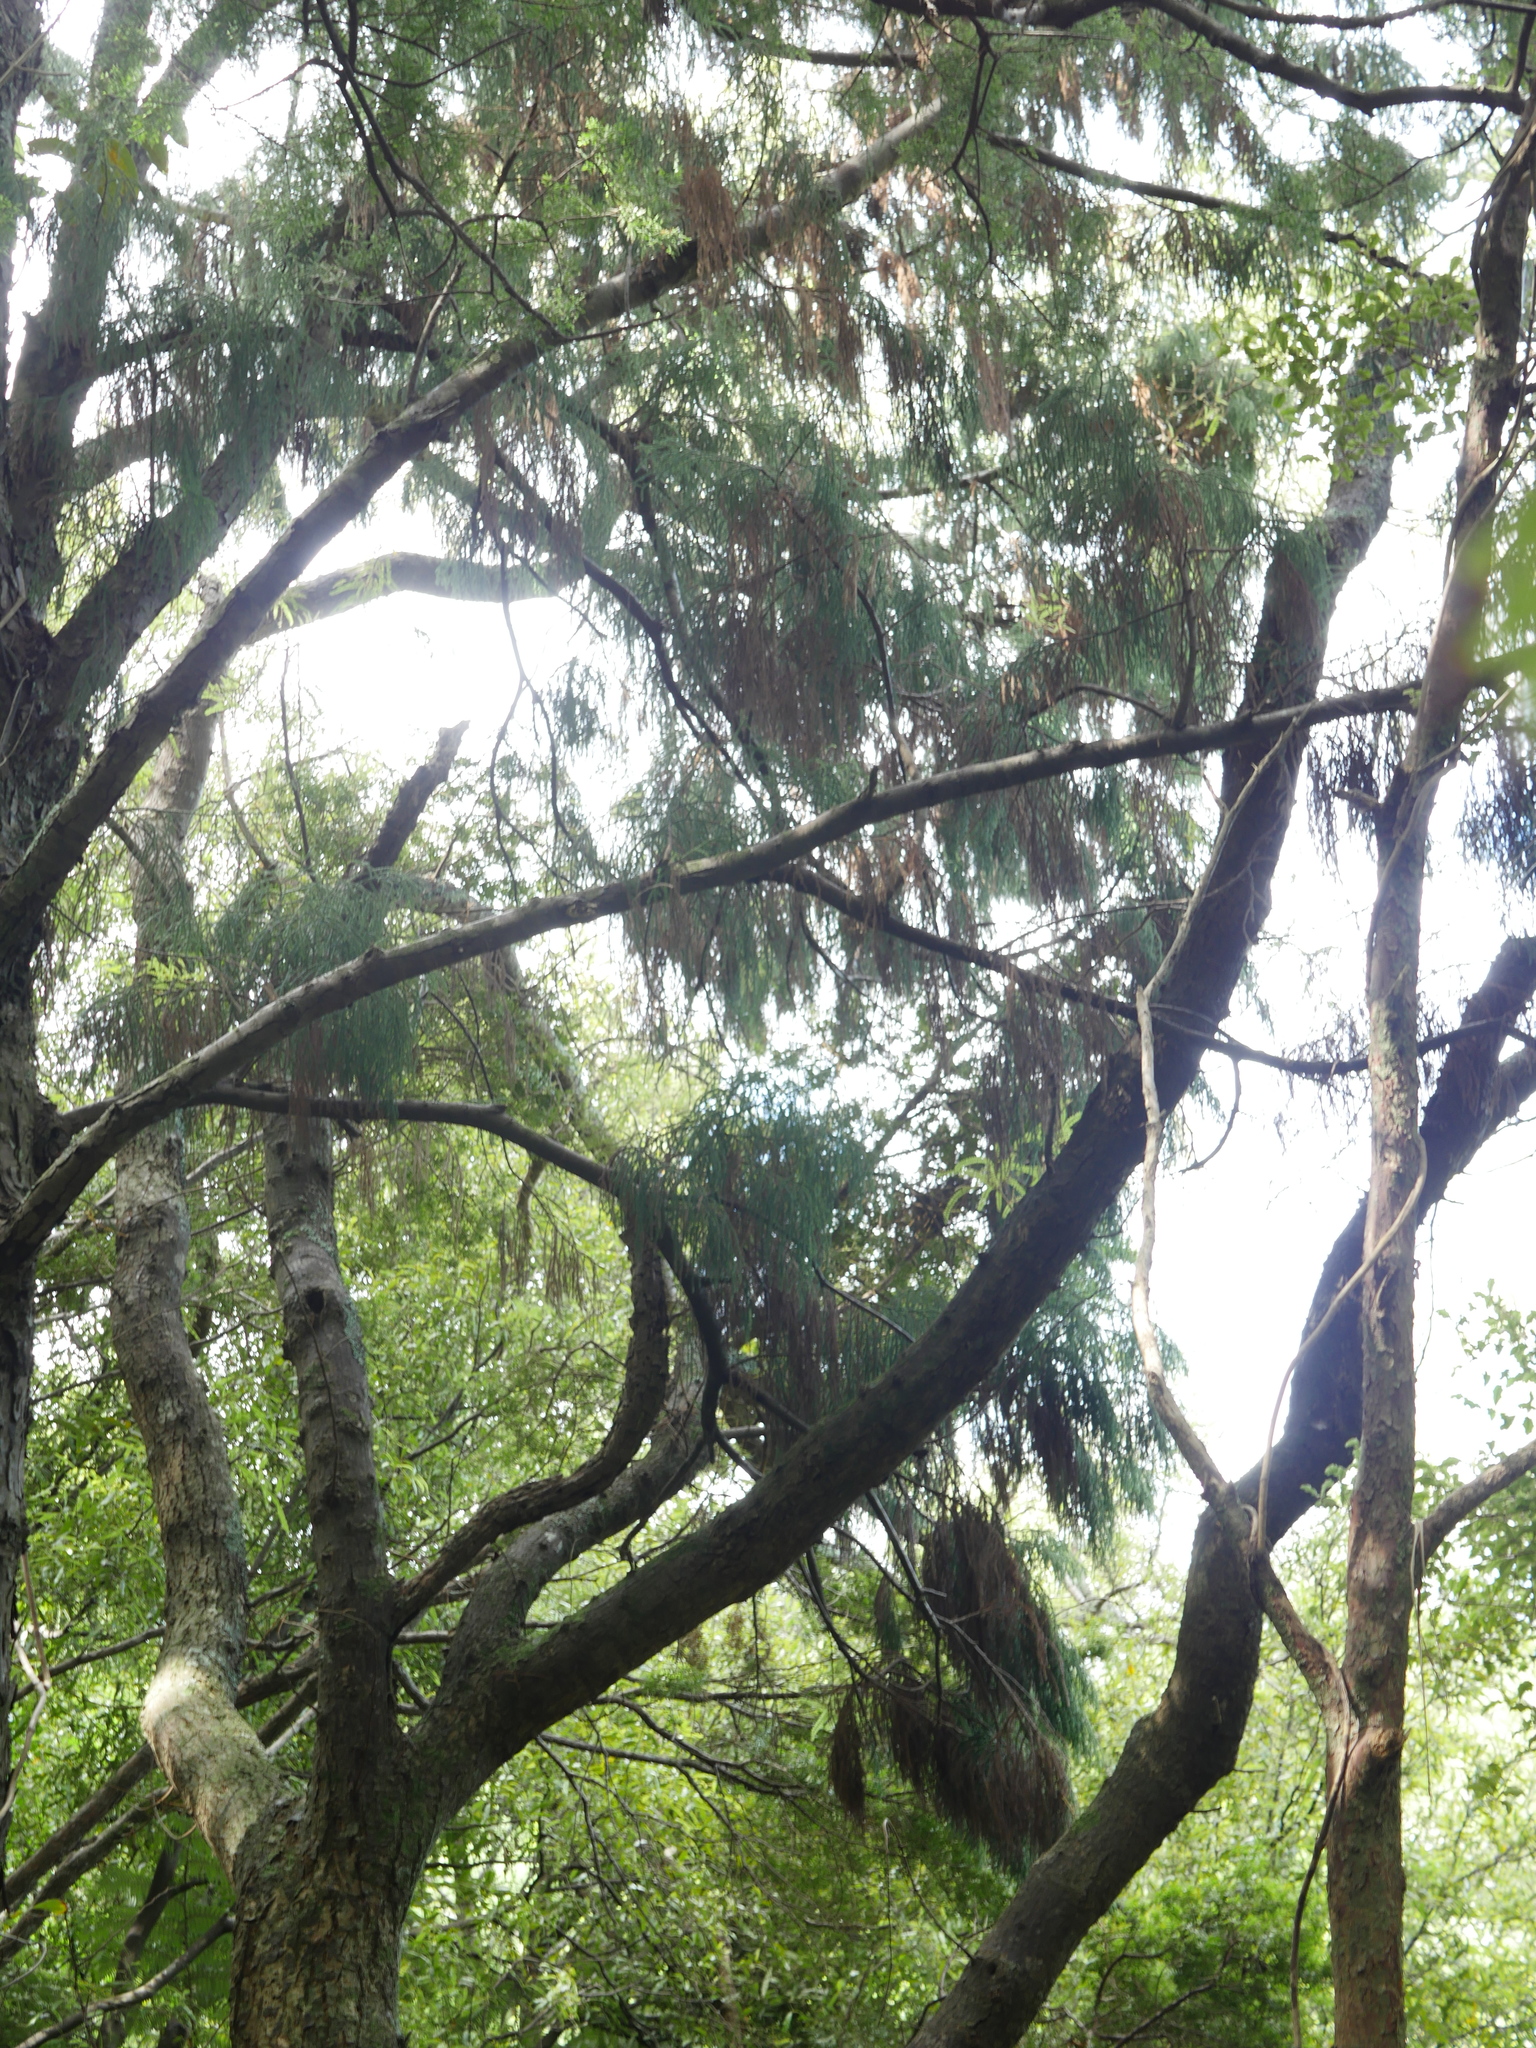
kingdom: Plantae
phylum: Tracheophyta
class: Magnoliopsida
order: Fabales
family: Fabaceae
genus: Sophora
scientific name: Sophora chathamica
